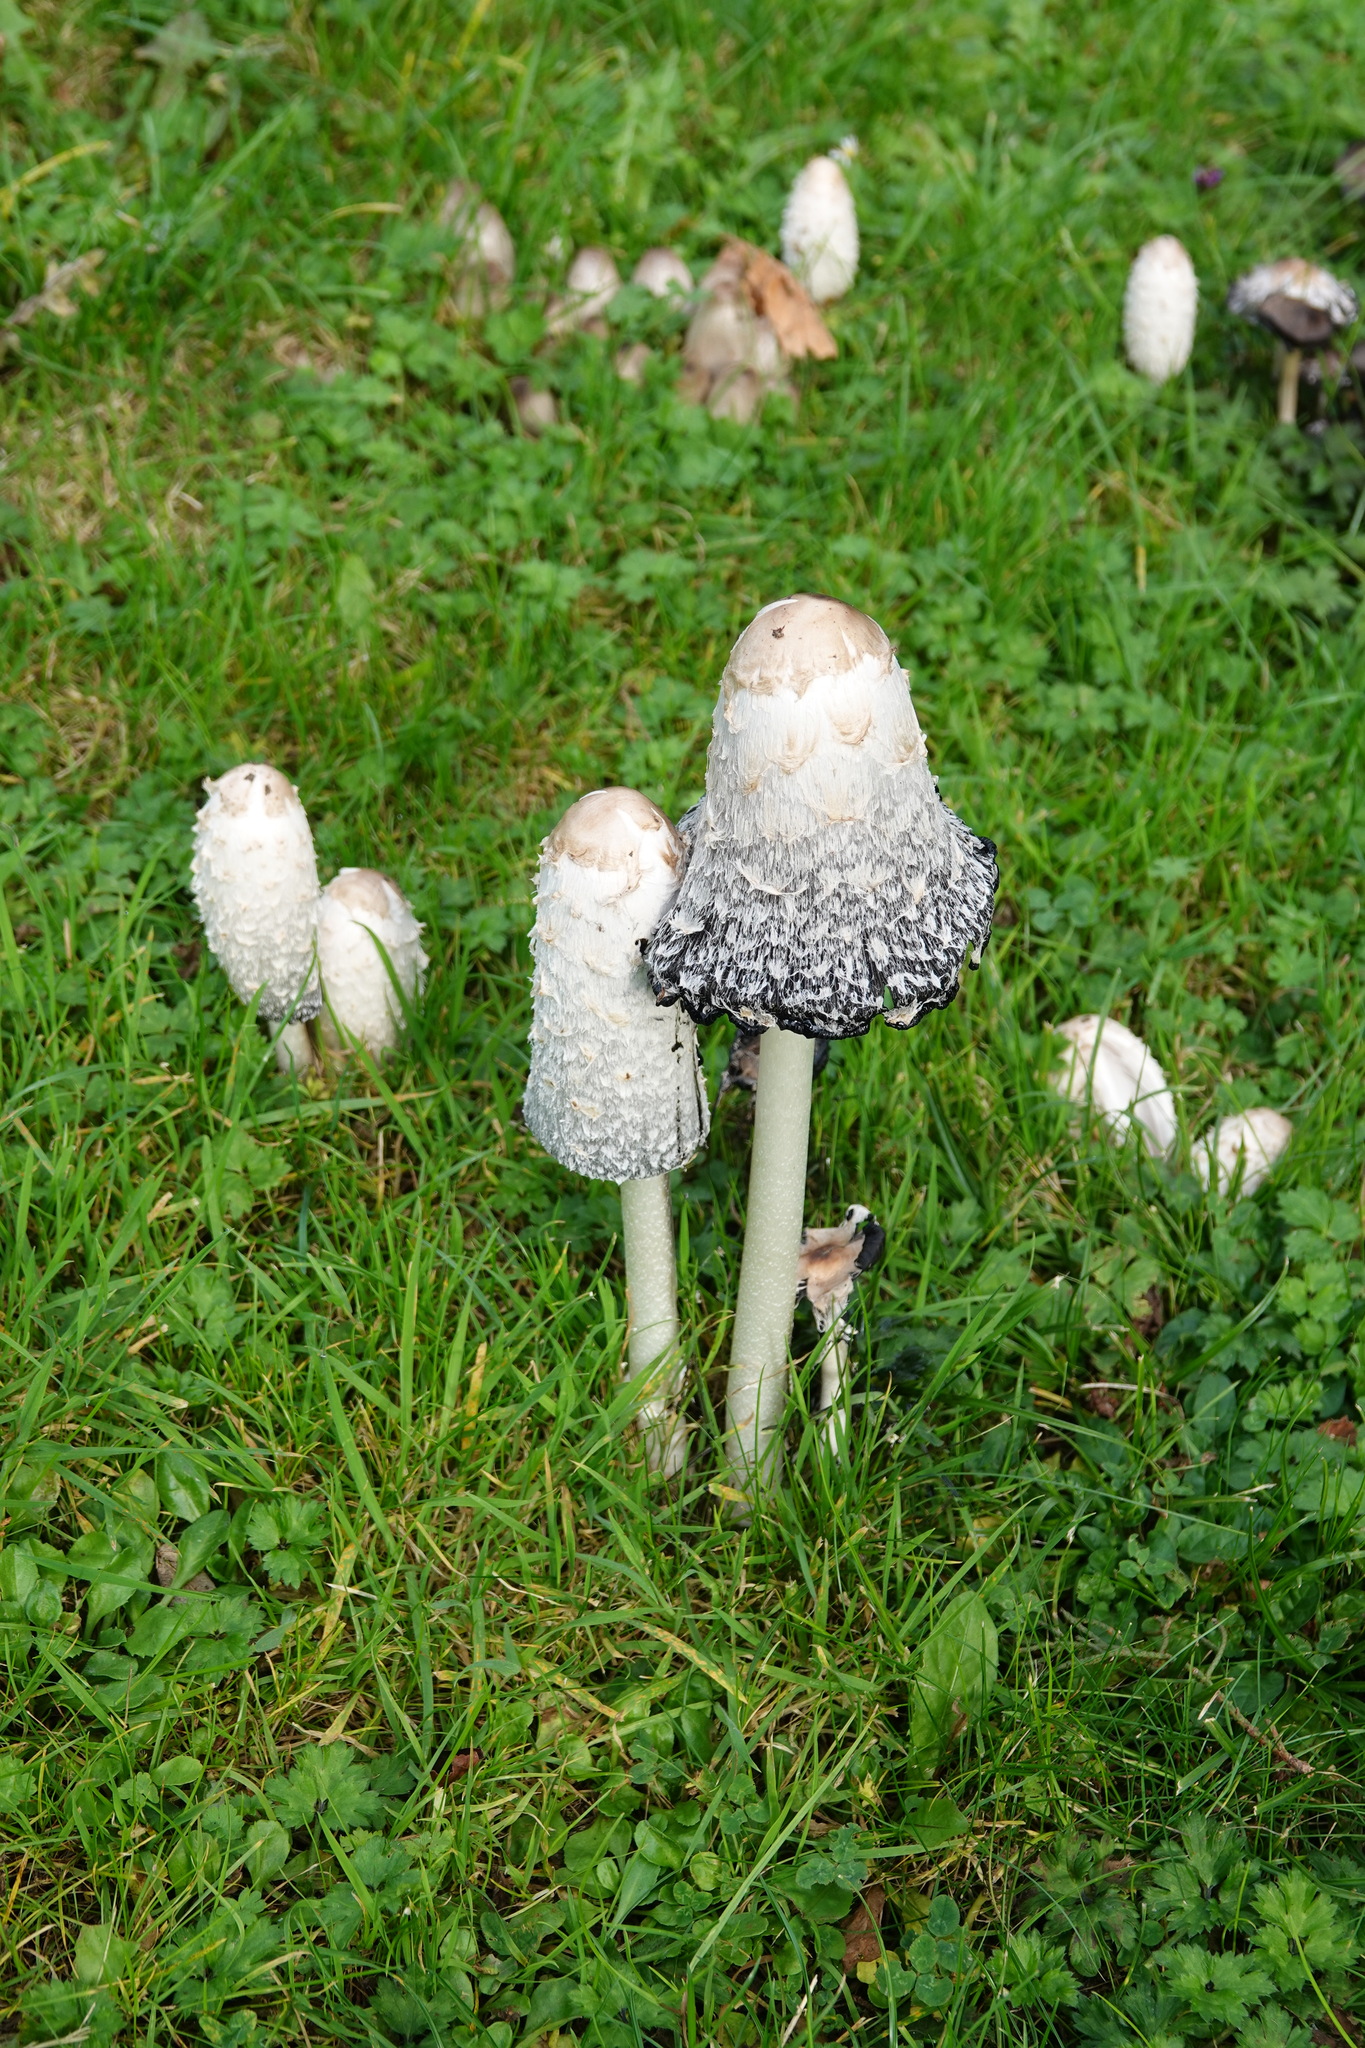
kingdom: Fungi
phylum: Basidiomycota
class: Agaricomycetes
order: Agaricales
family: Agaricaceae
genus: Coprinus
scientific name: Coprinus comatus
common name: Lawyer's wig
